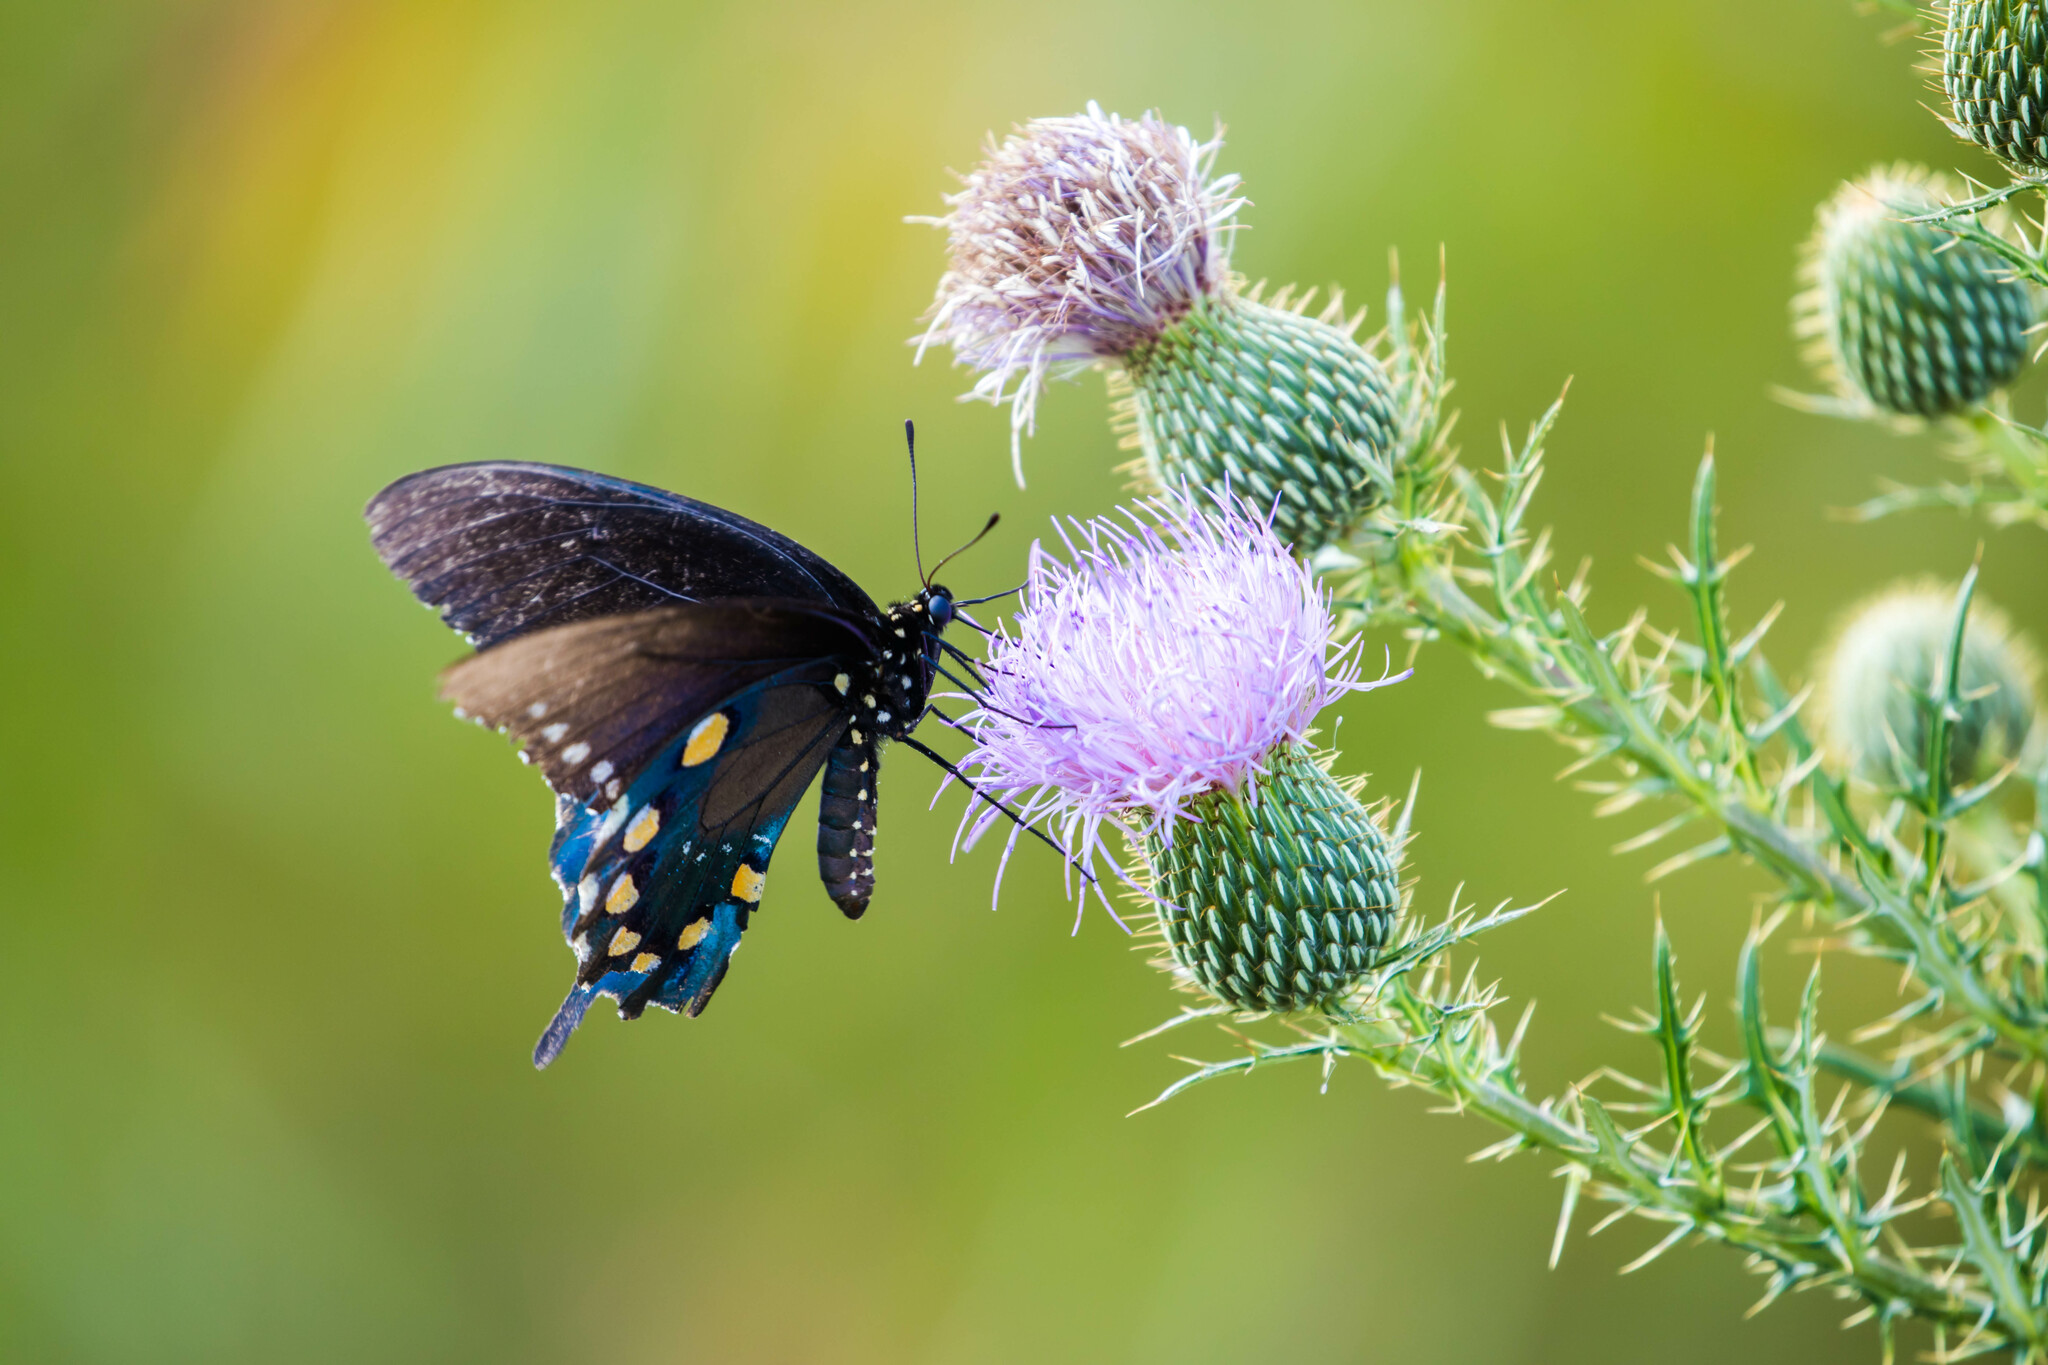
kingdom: Animalia
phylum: Arthropoda
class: Insecta
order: Lepidoptera
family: Papilionidae
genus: Battus
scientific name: Battus philenor
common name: Pipevine swallowtail
